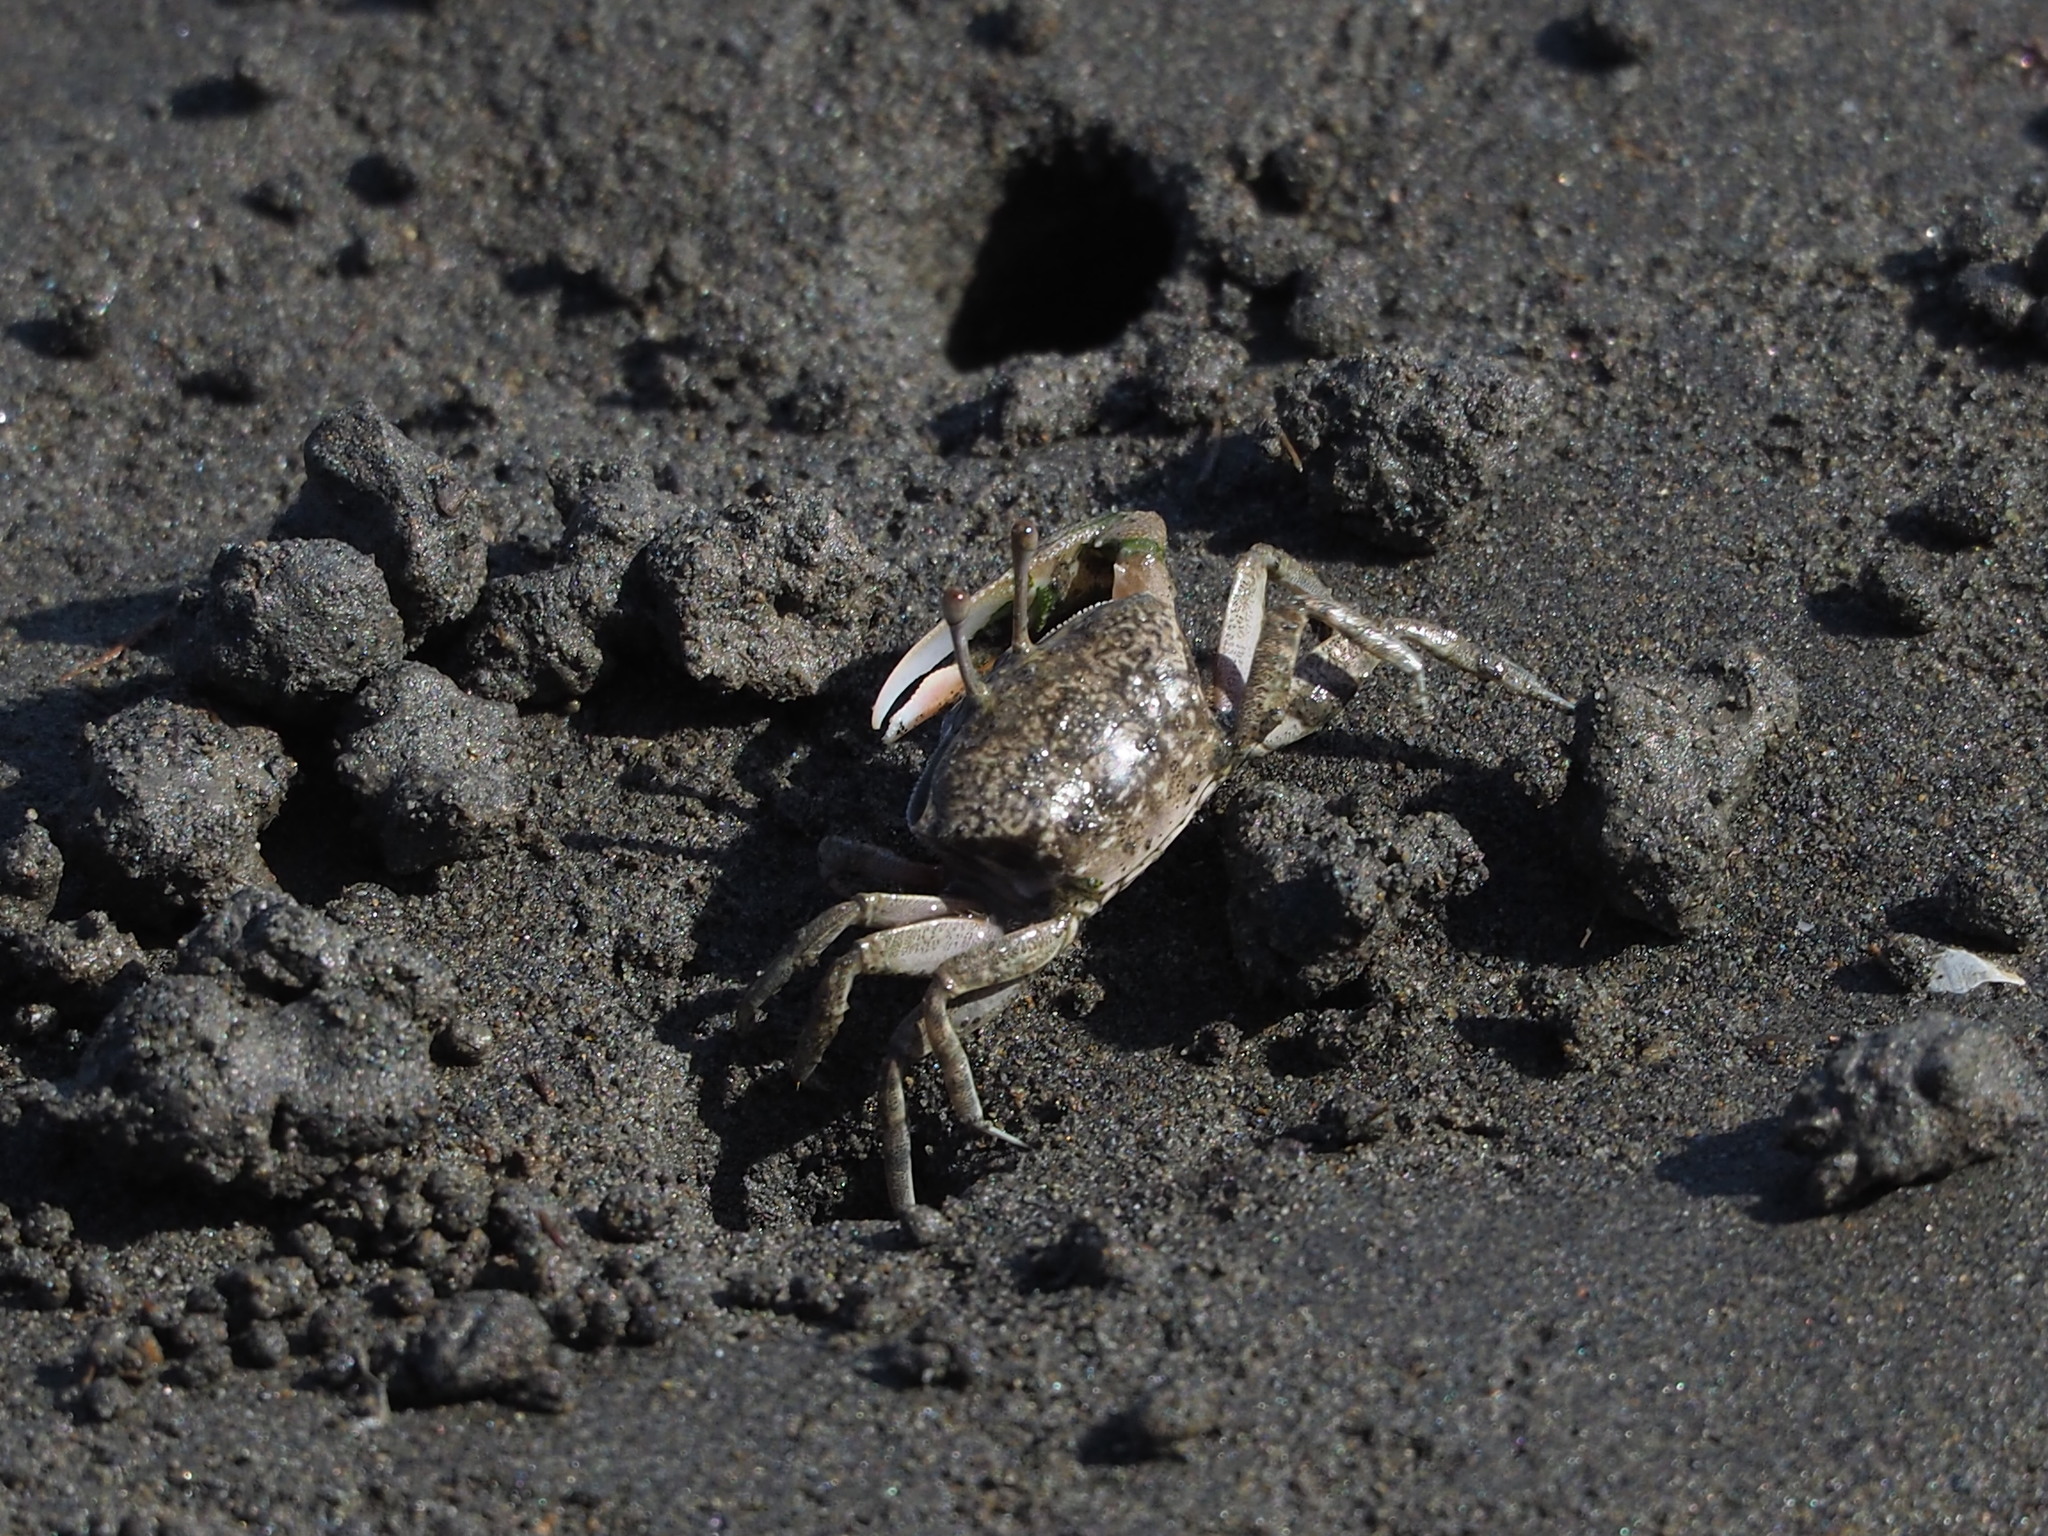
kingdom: Animalia
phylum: Arthropoda
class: Malacostraca
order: Decapoda
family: Ocypodidae
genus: Gelasimus
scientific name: Gelasimus borealis
